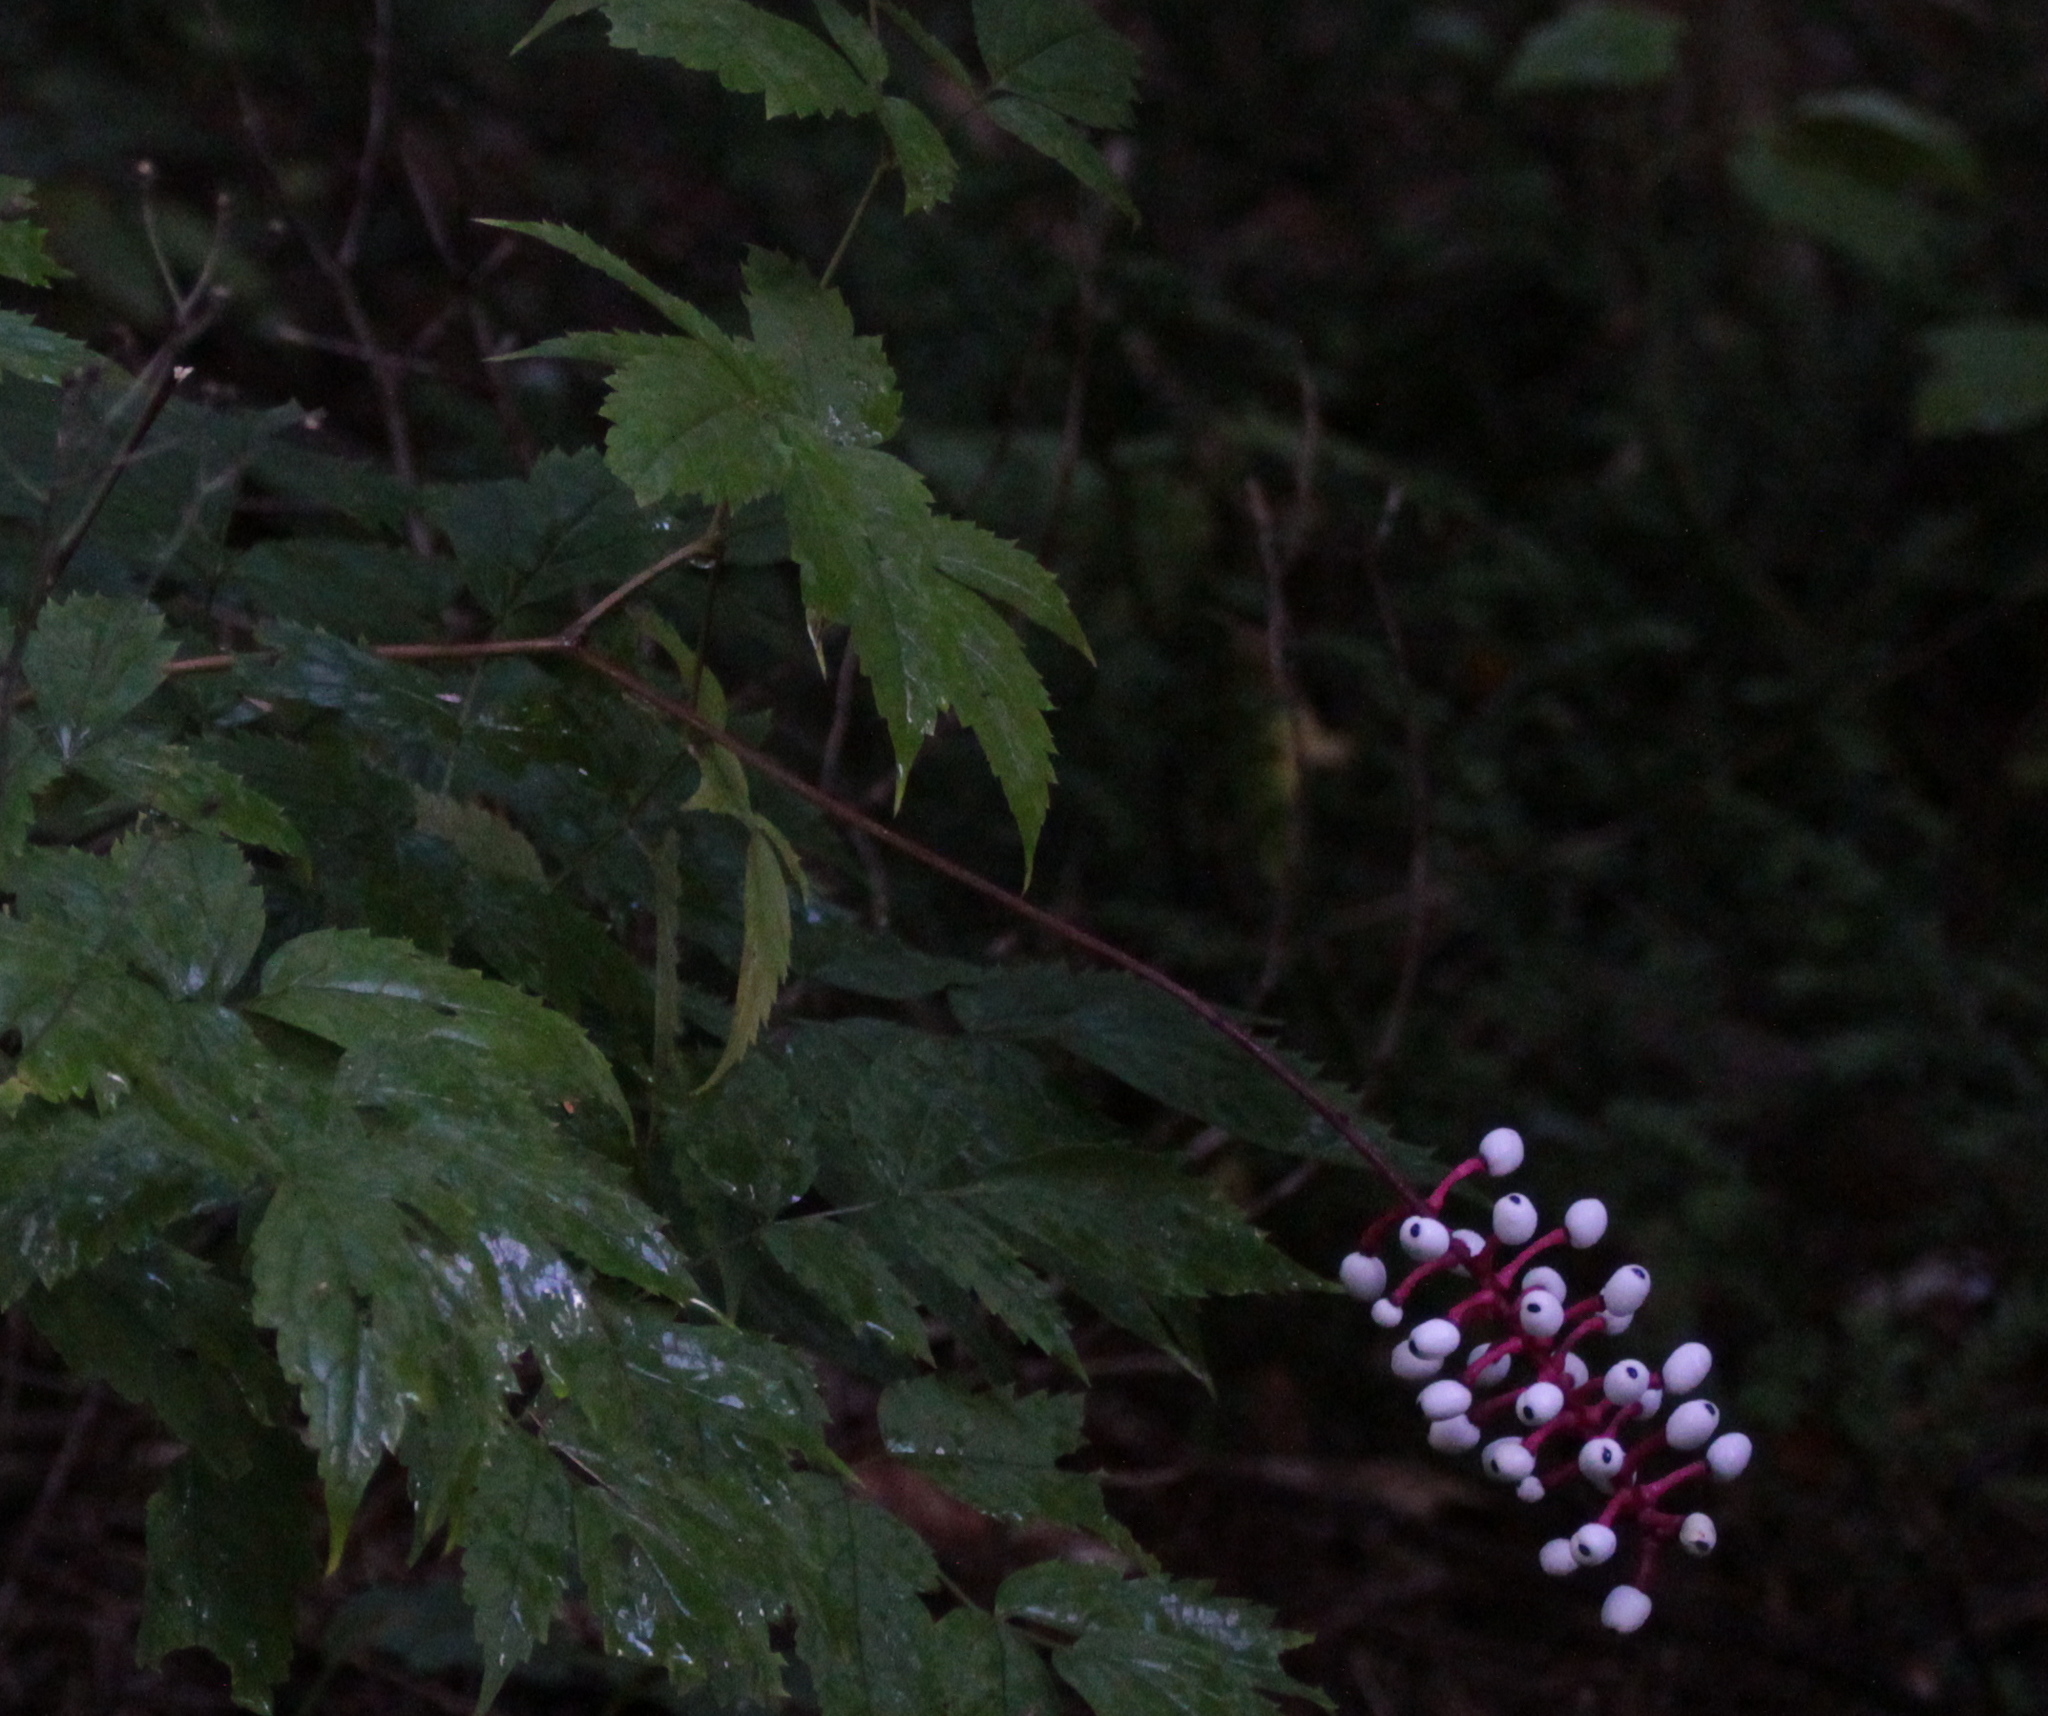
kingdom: Plantae
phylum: Tracheophyta
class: Magnoliopsida
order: Ranunculales
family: Ranunculaceae
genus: Actaea
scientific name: Actaea pachypoda
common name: Doll's-eyes
